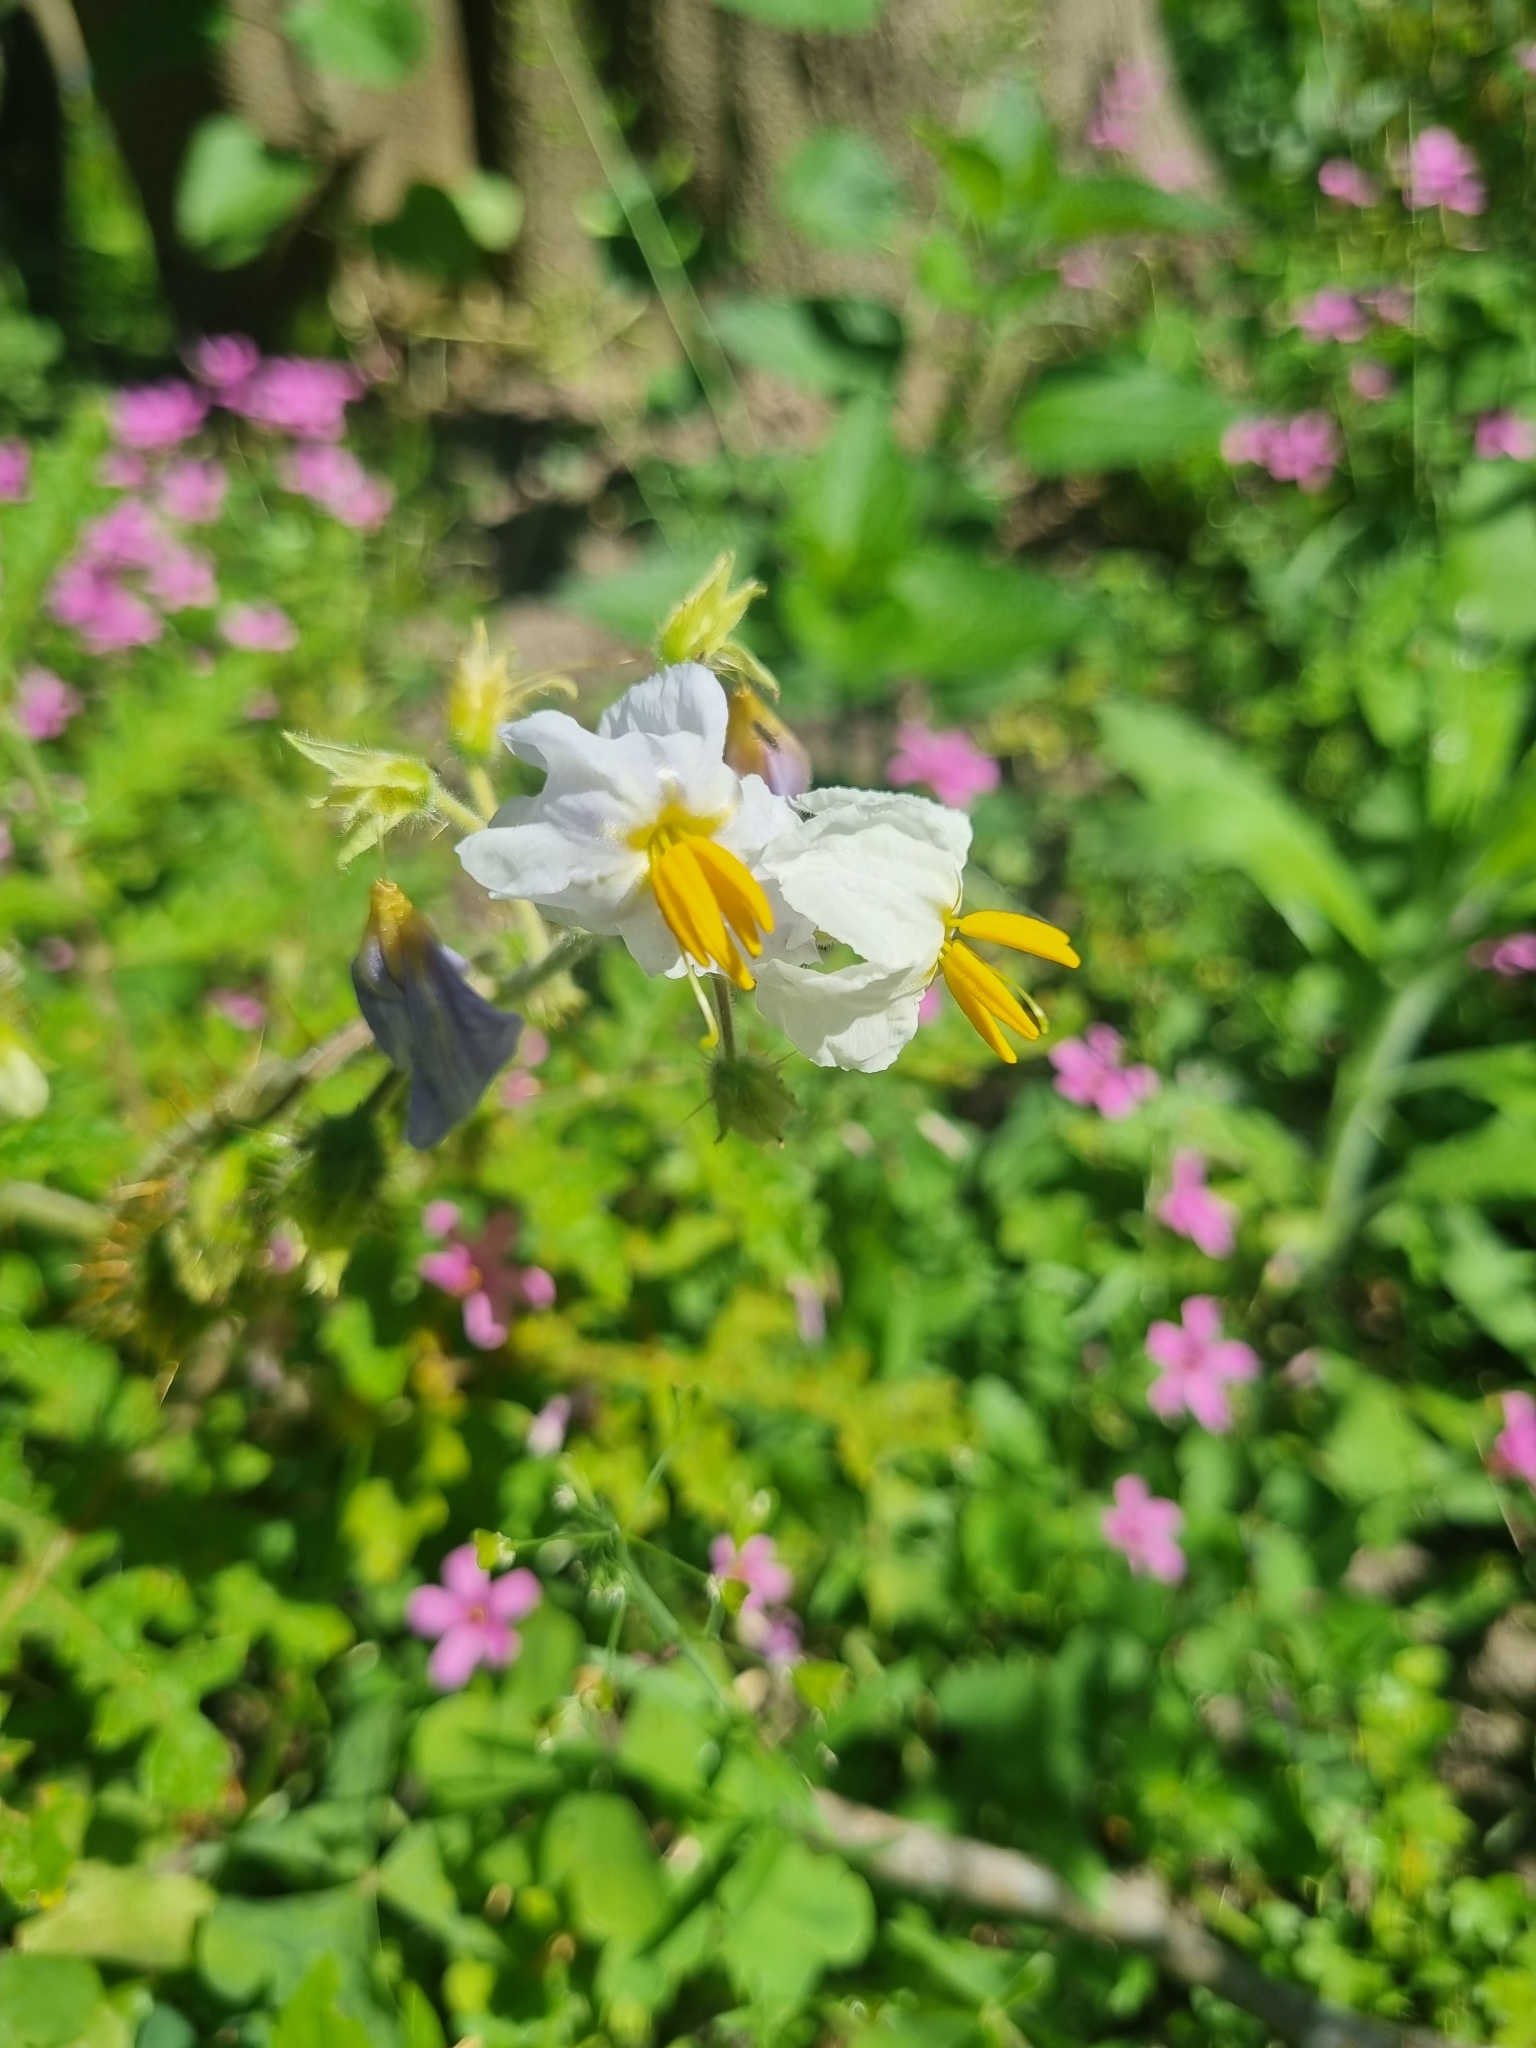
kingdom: Plantae
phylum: Tracheophyta
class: Magnoliopsida
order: Solanales
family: Solanaceae
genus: Solanum
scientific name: Solanum sisymbriifolium
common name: Red buffalo-bur
